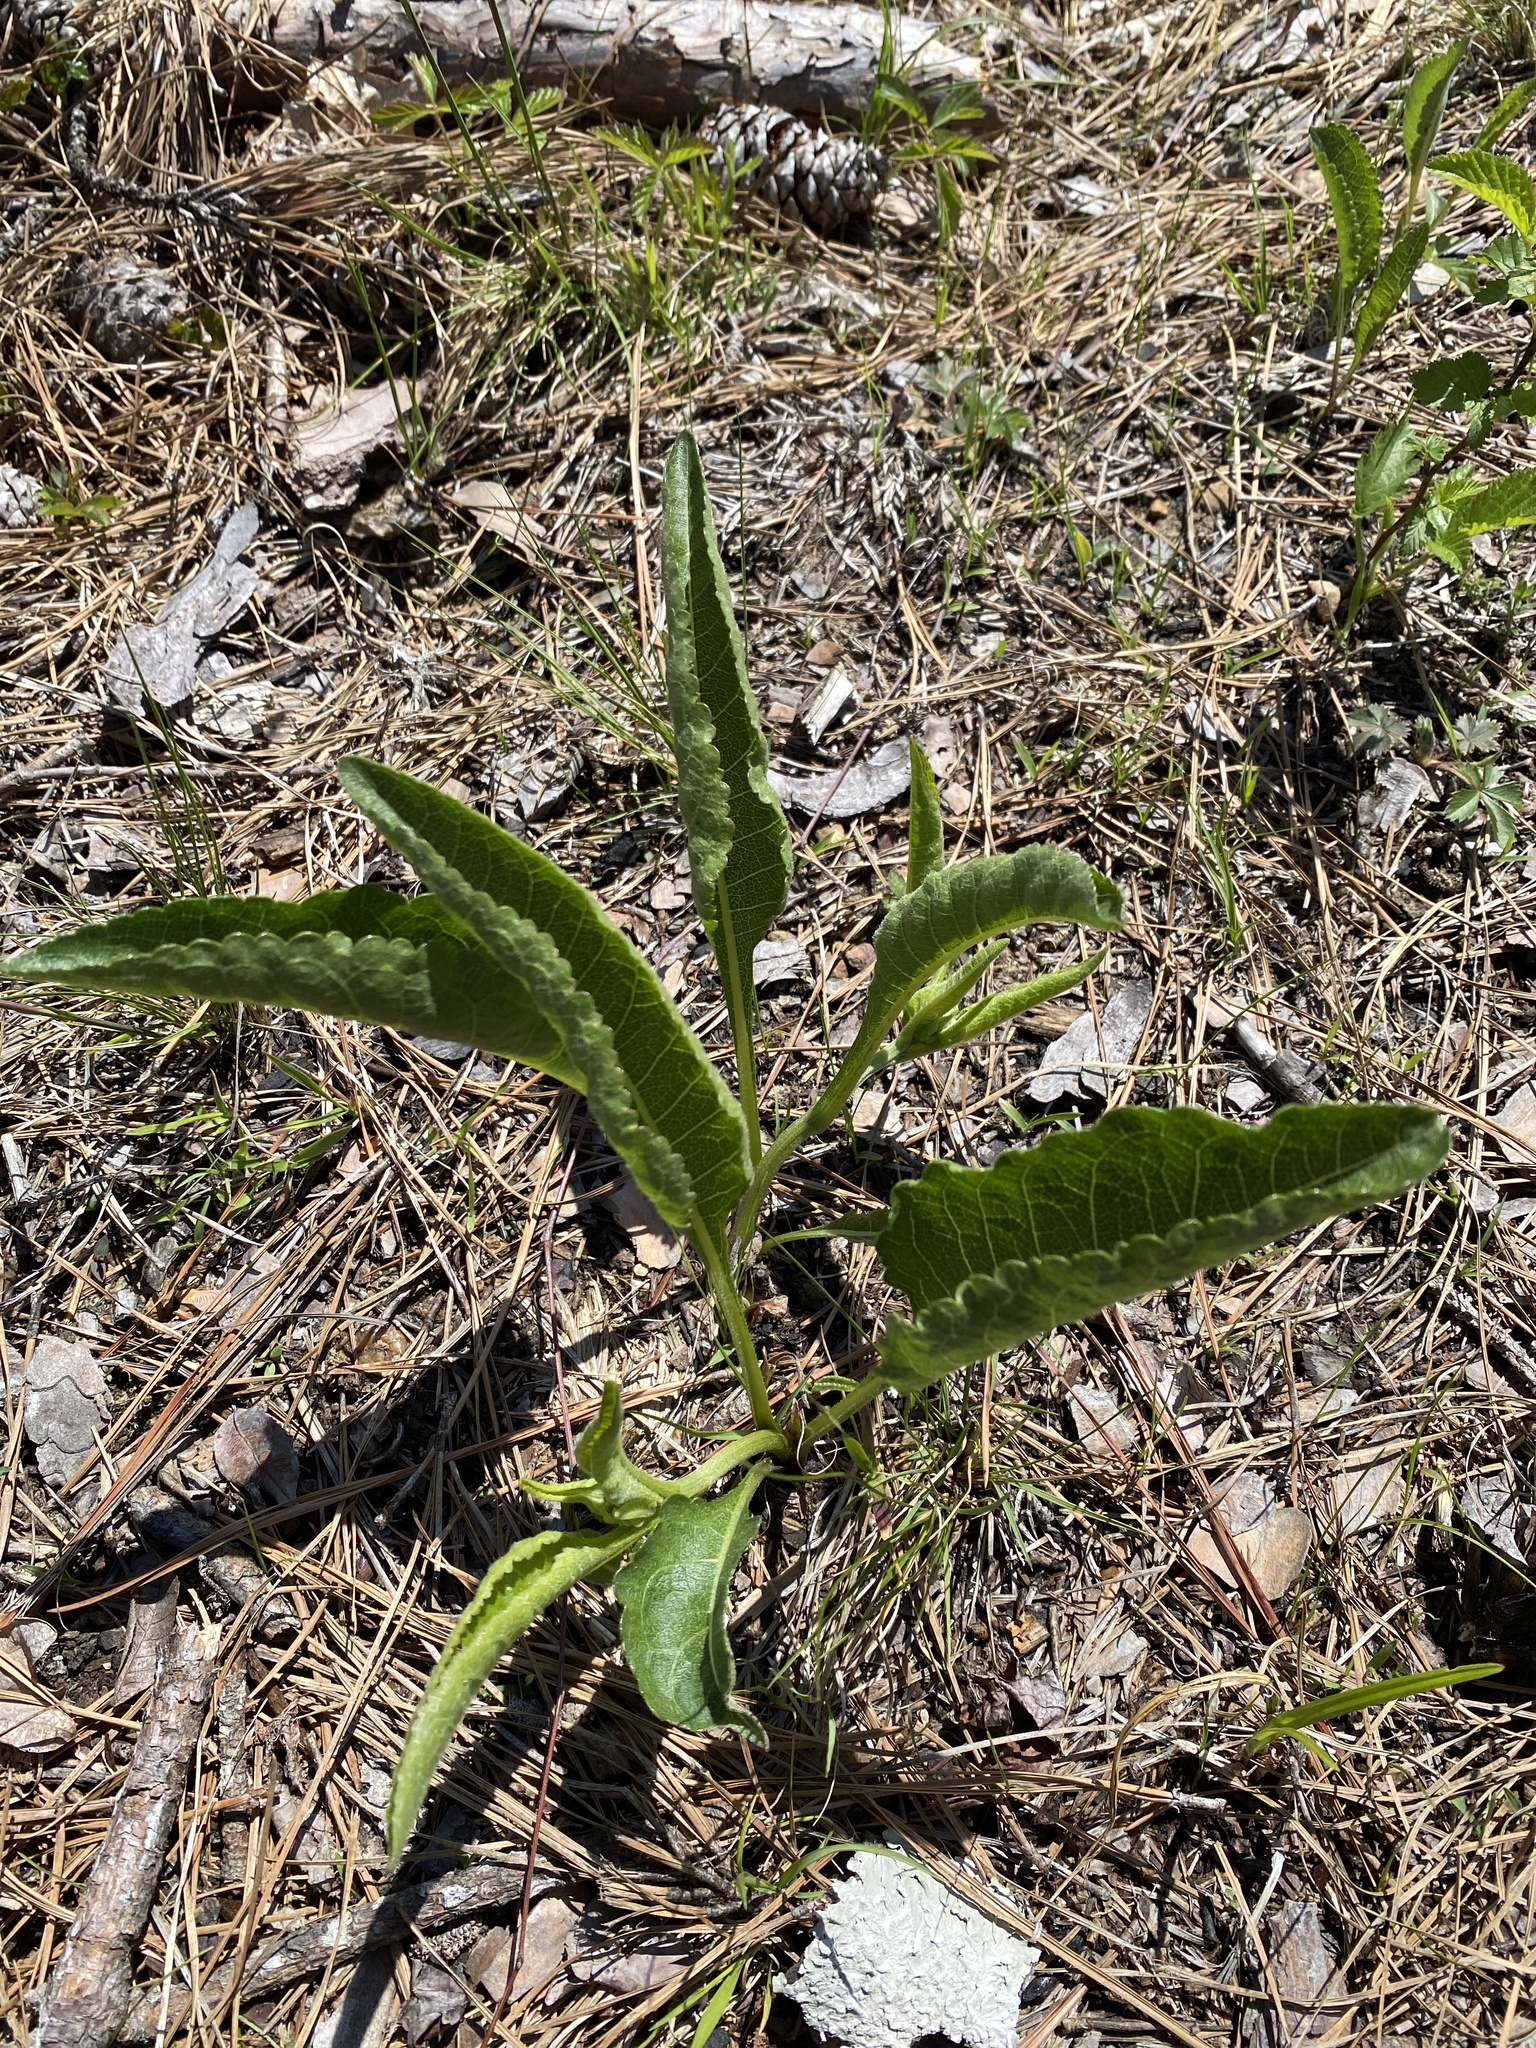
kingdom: Plantae
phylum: Tracheophyta
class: Magnoliopsida
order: Asterales
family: Asteraceae
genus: Parthenium
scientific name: Parthenium integrifolium
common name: American feverfew
